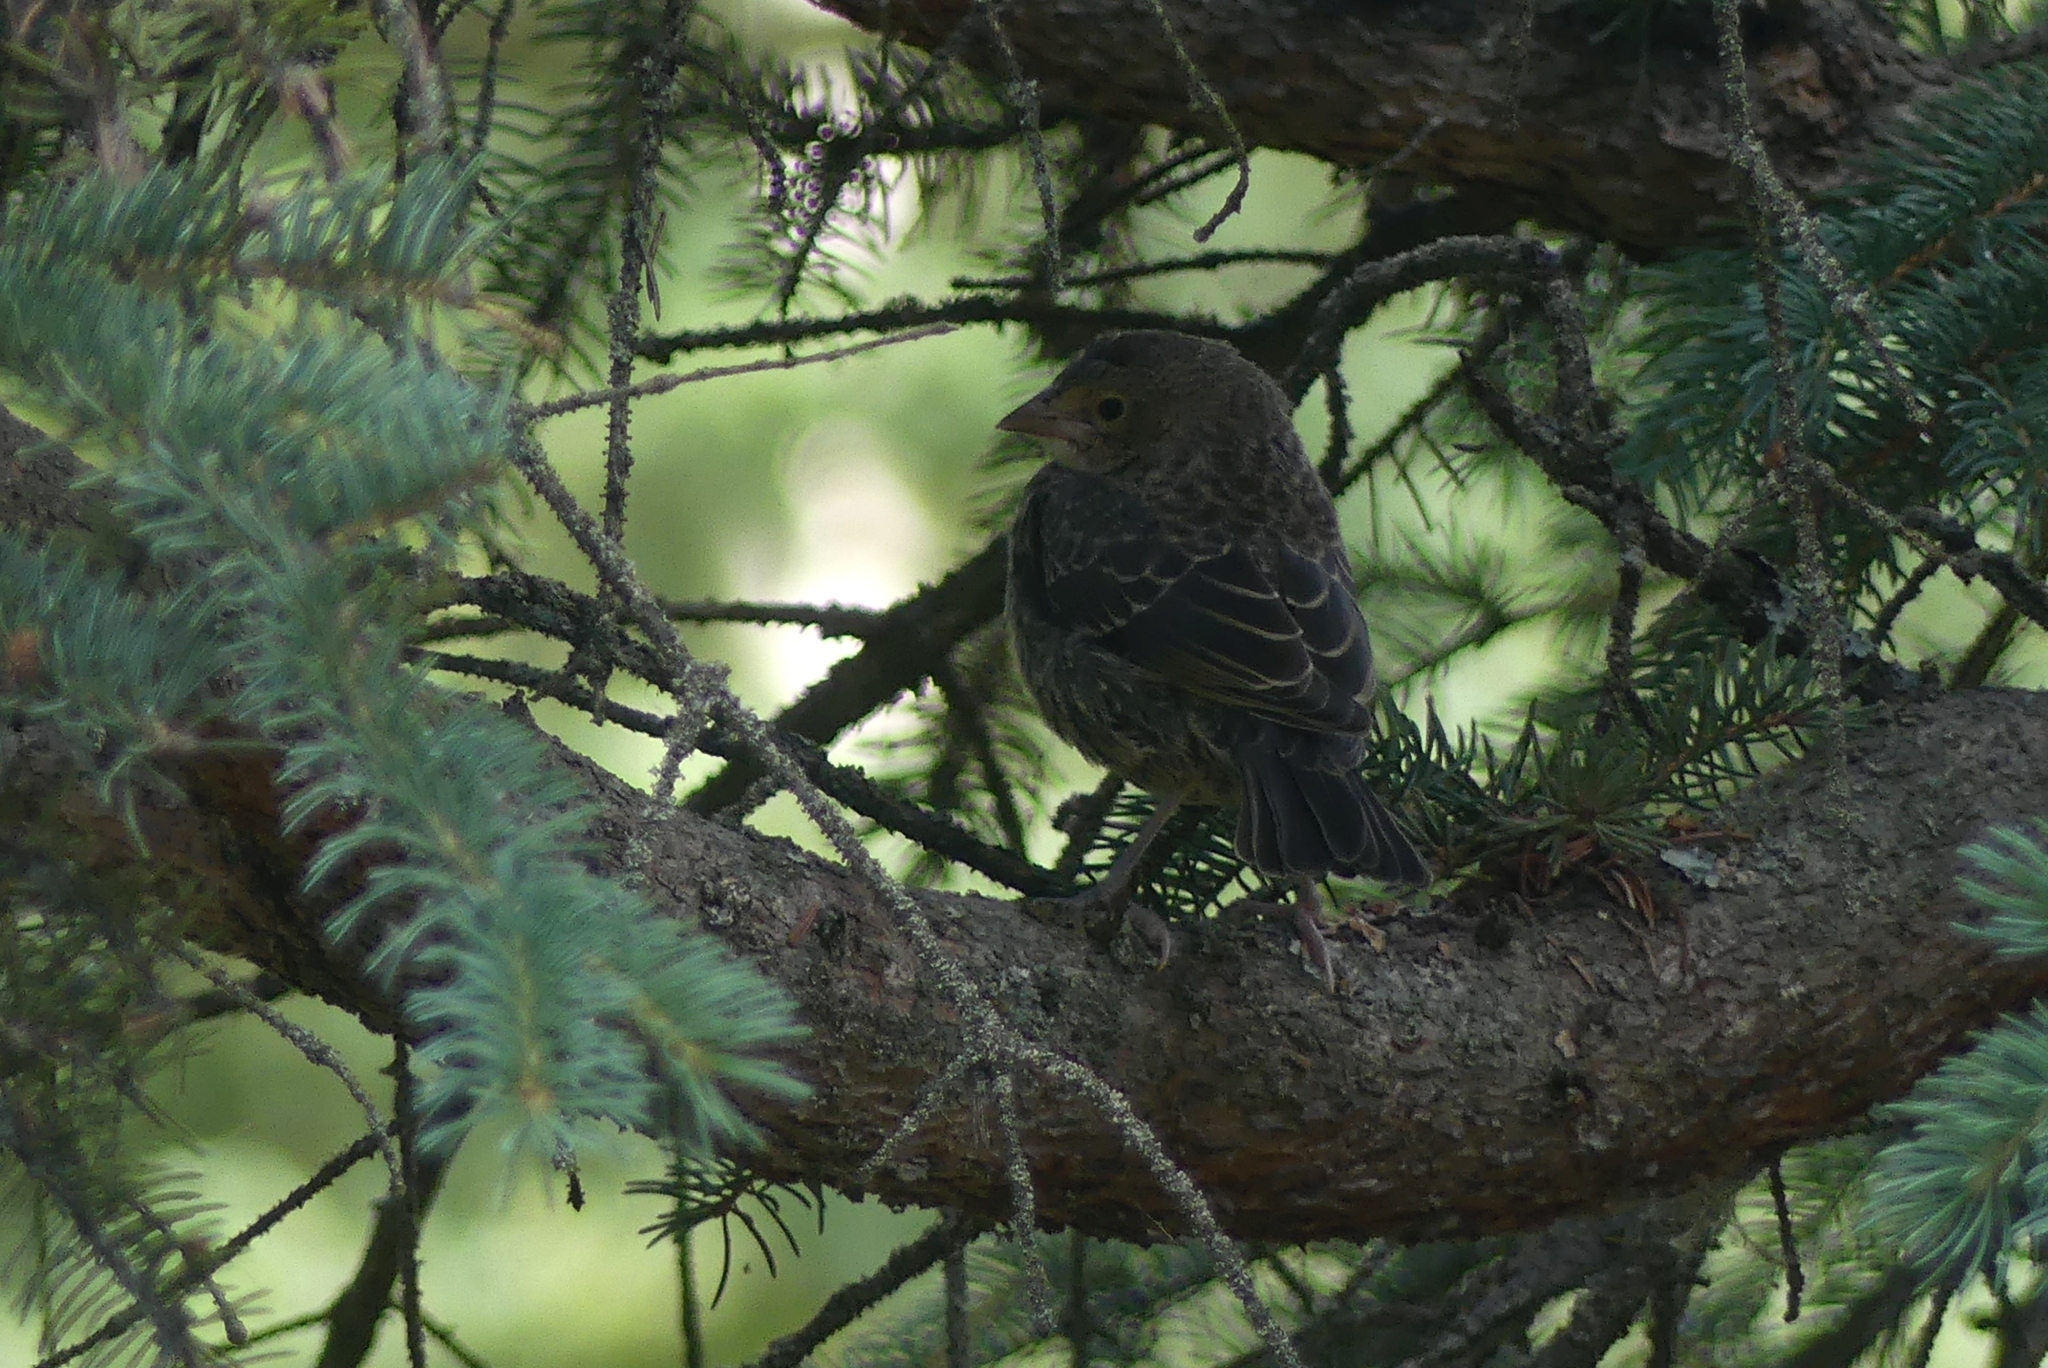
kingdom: Animalia
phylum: Chordata
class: Aves
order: Passeriformes
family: Icteridae
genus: Molothrus
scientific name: Molothrus ater
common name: Brown-headed cowbird
